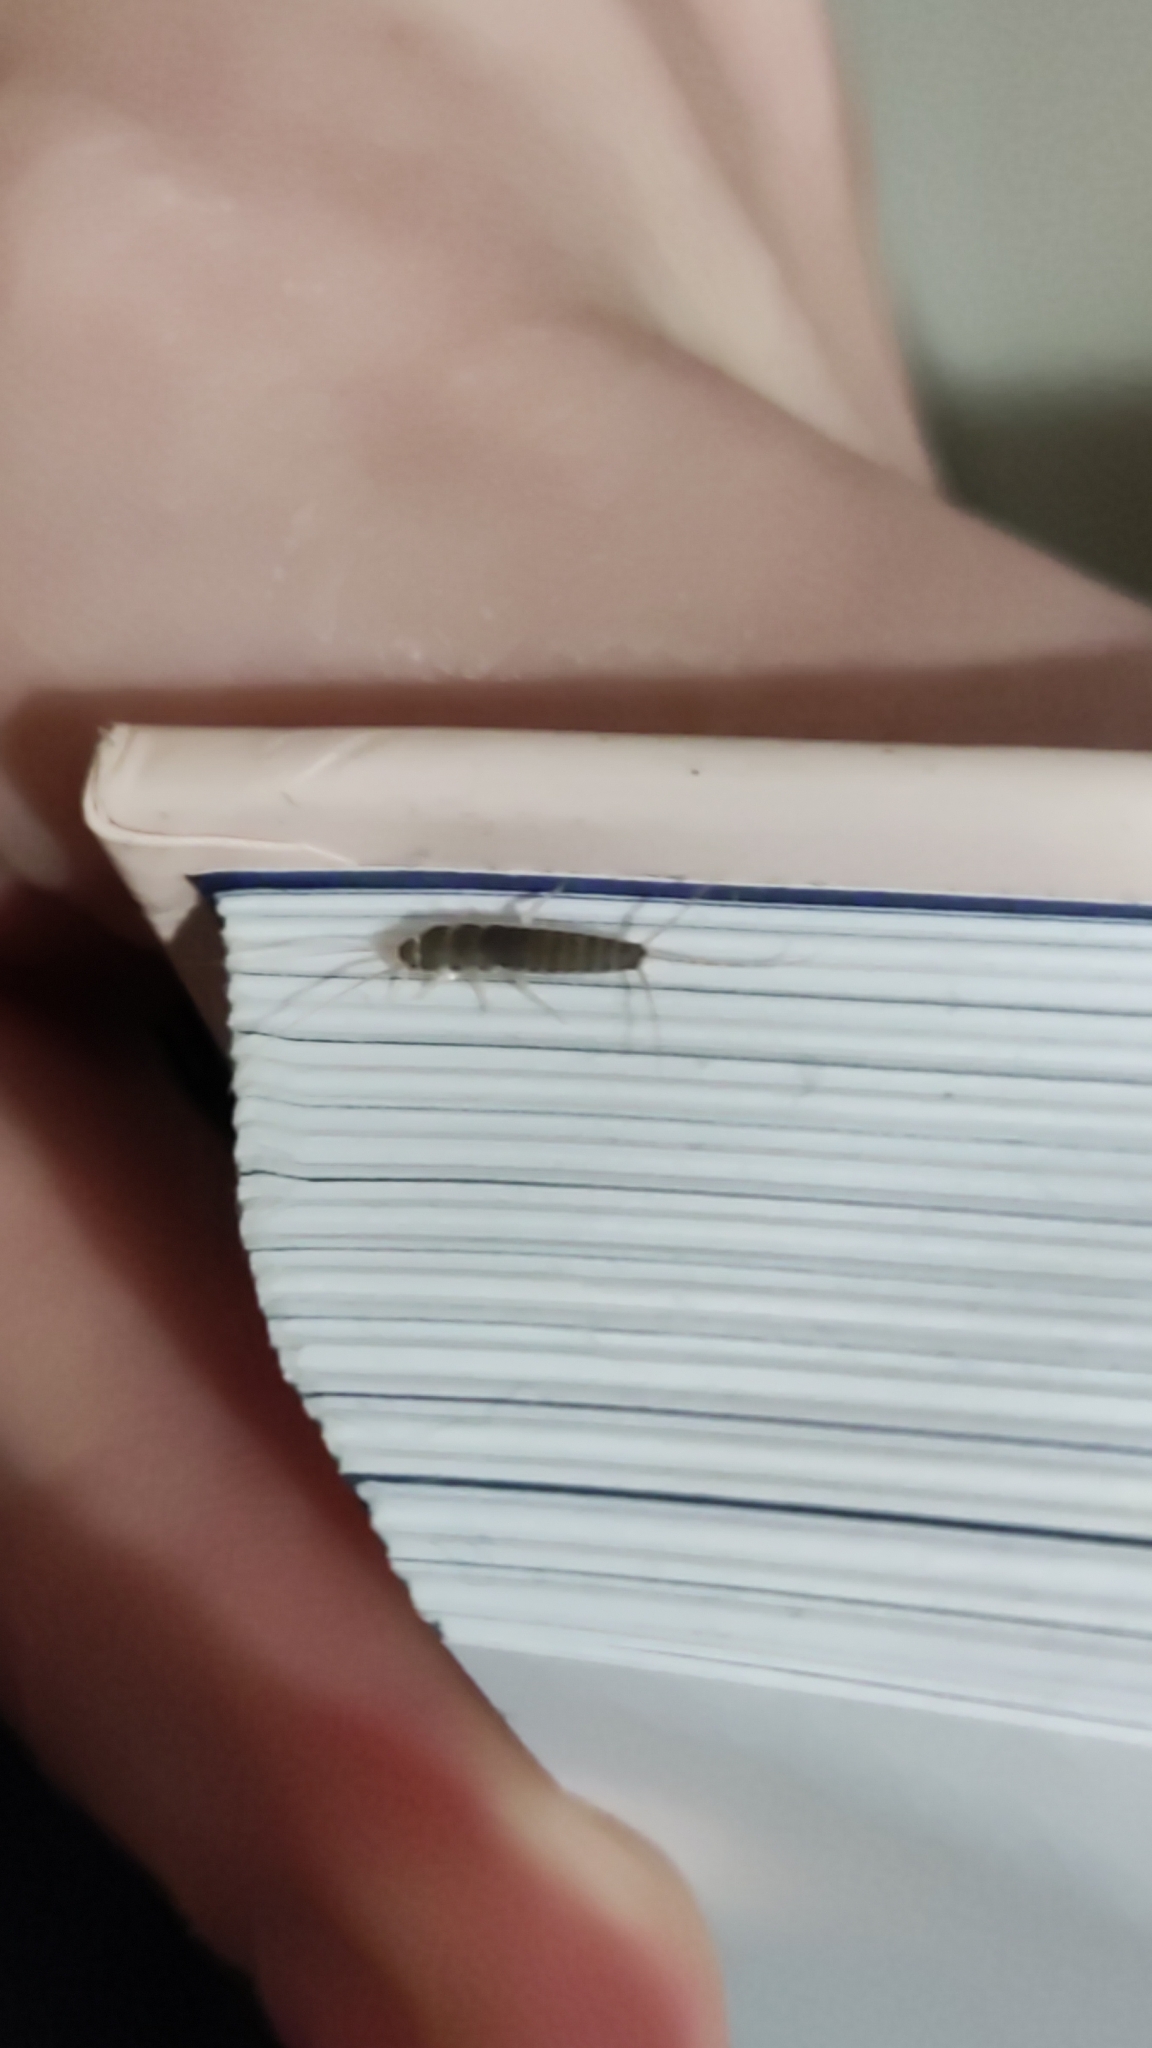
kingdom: Animalia
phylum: Arthropoda
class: Insecta
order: Zygentoma
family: Lepismatidae
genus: Ctenolepisma
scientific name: Ctenolepisma longicaudatum
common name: Silverfish
